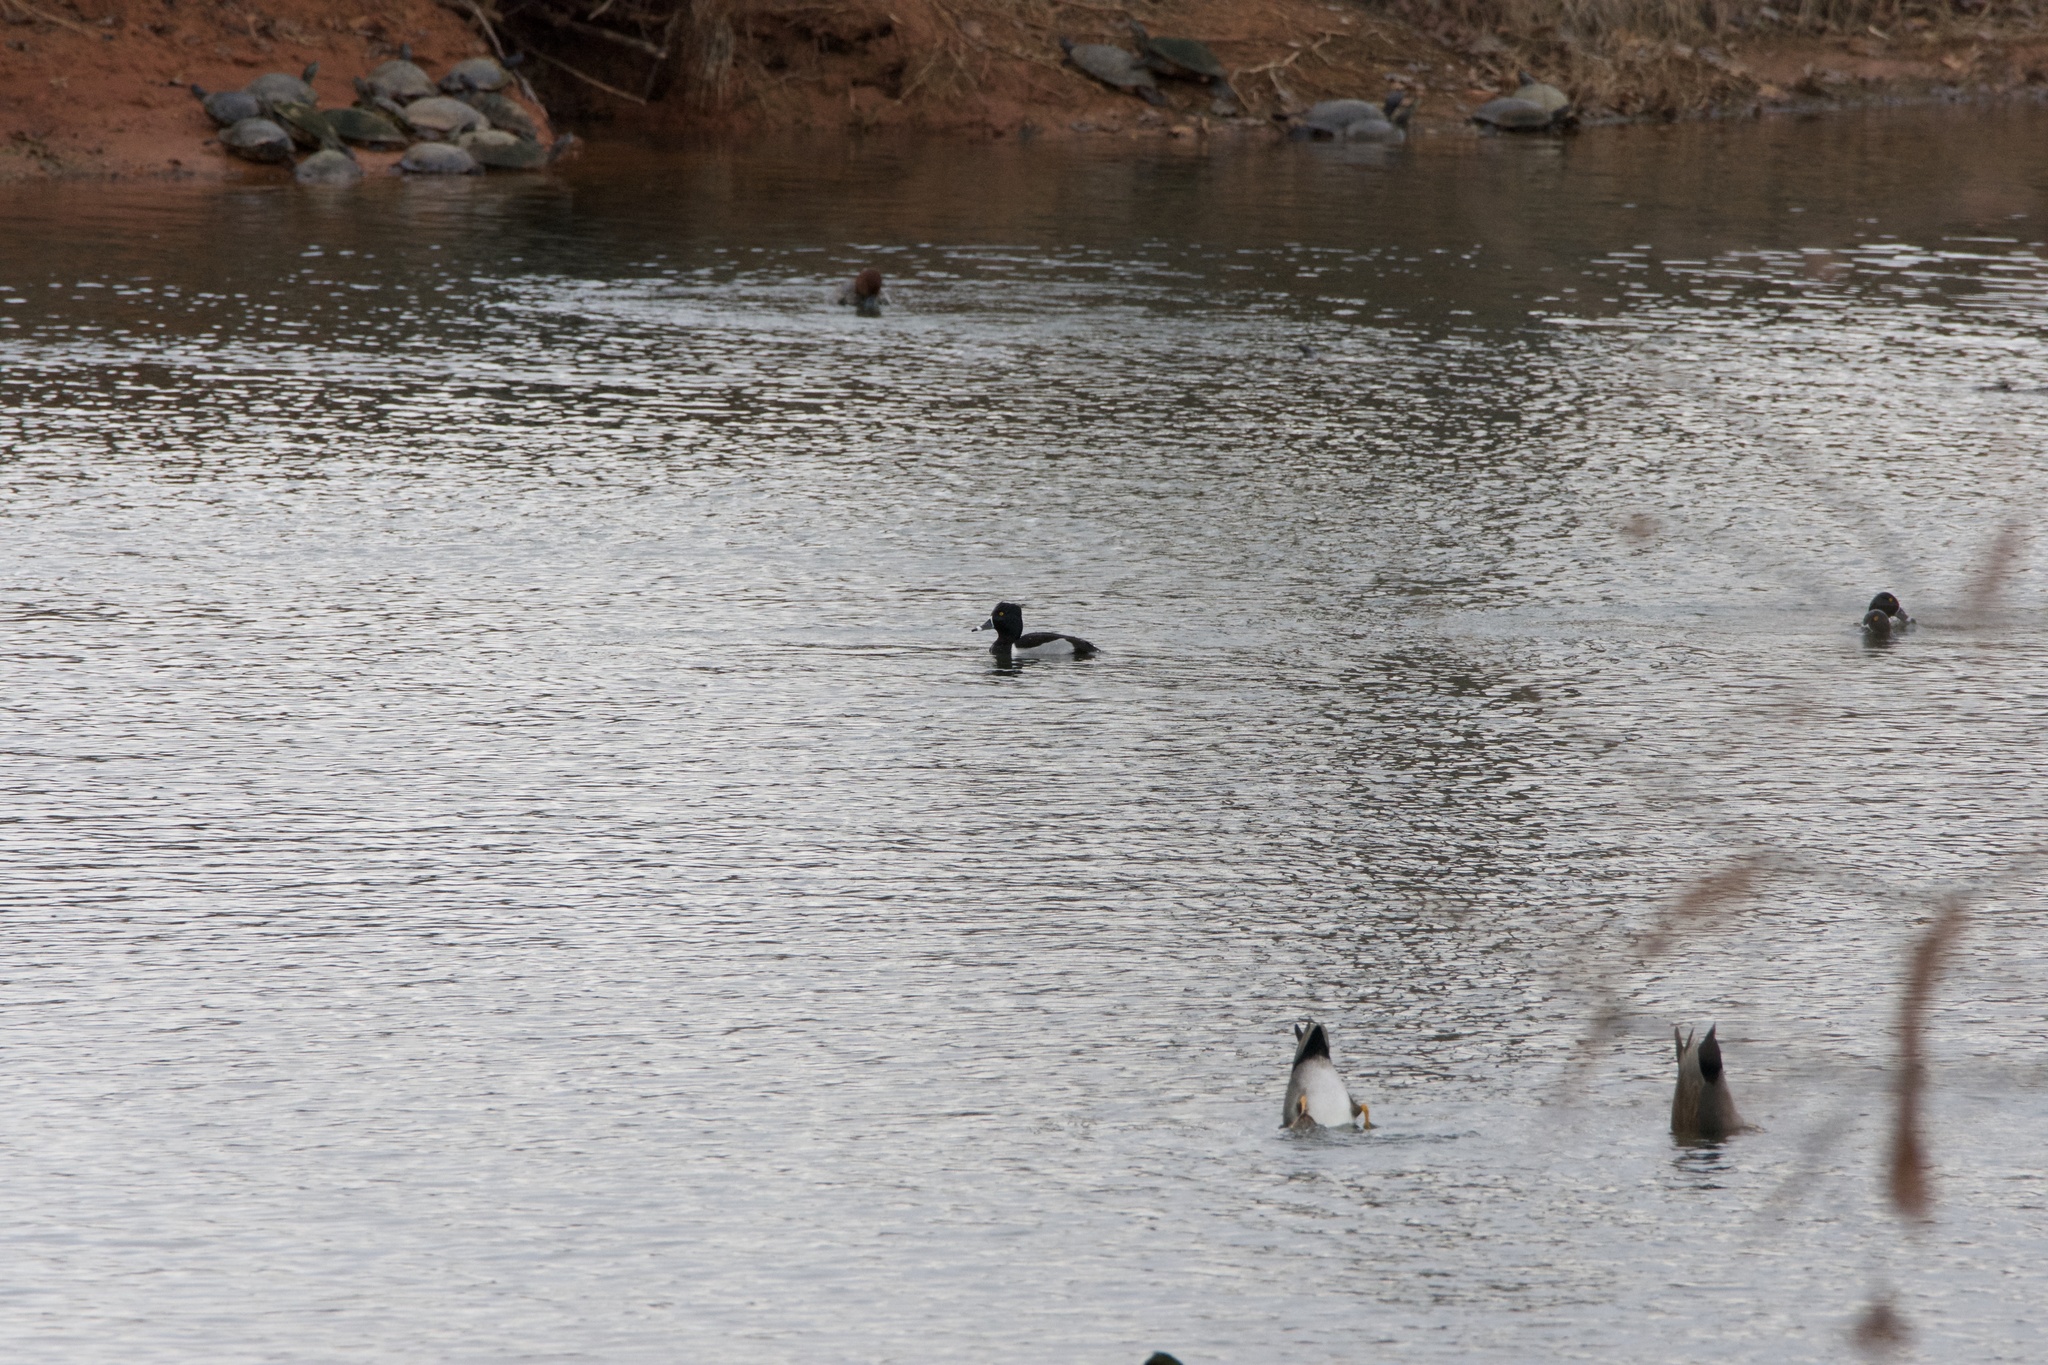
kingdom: Animalia
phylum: Chordata
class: Aves
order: Anseriformes
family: Anatidae
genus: Aythya
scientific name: Aythya collaris
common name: Ring-necked duck
